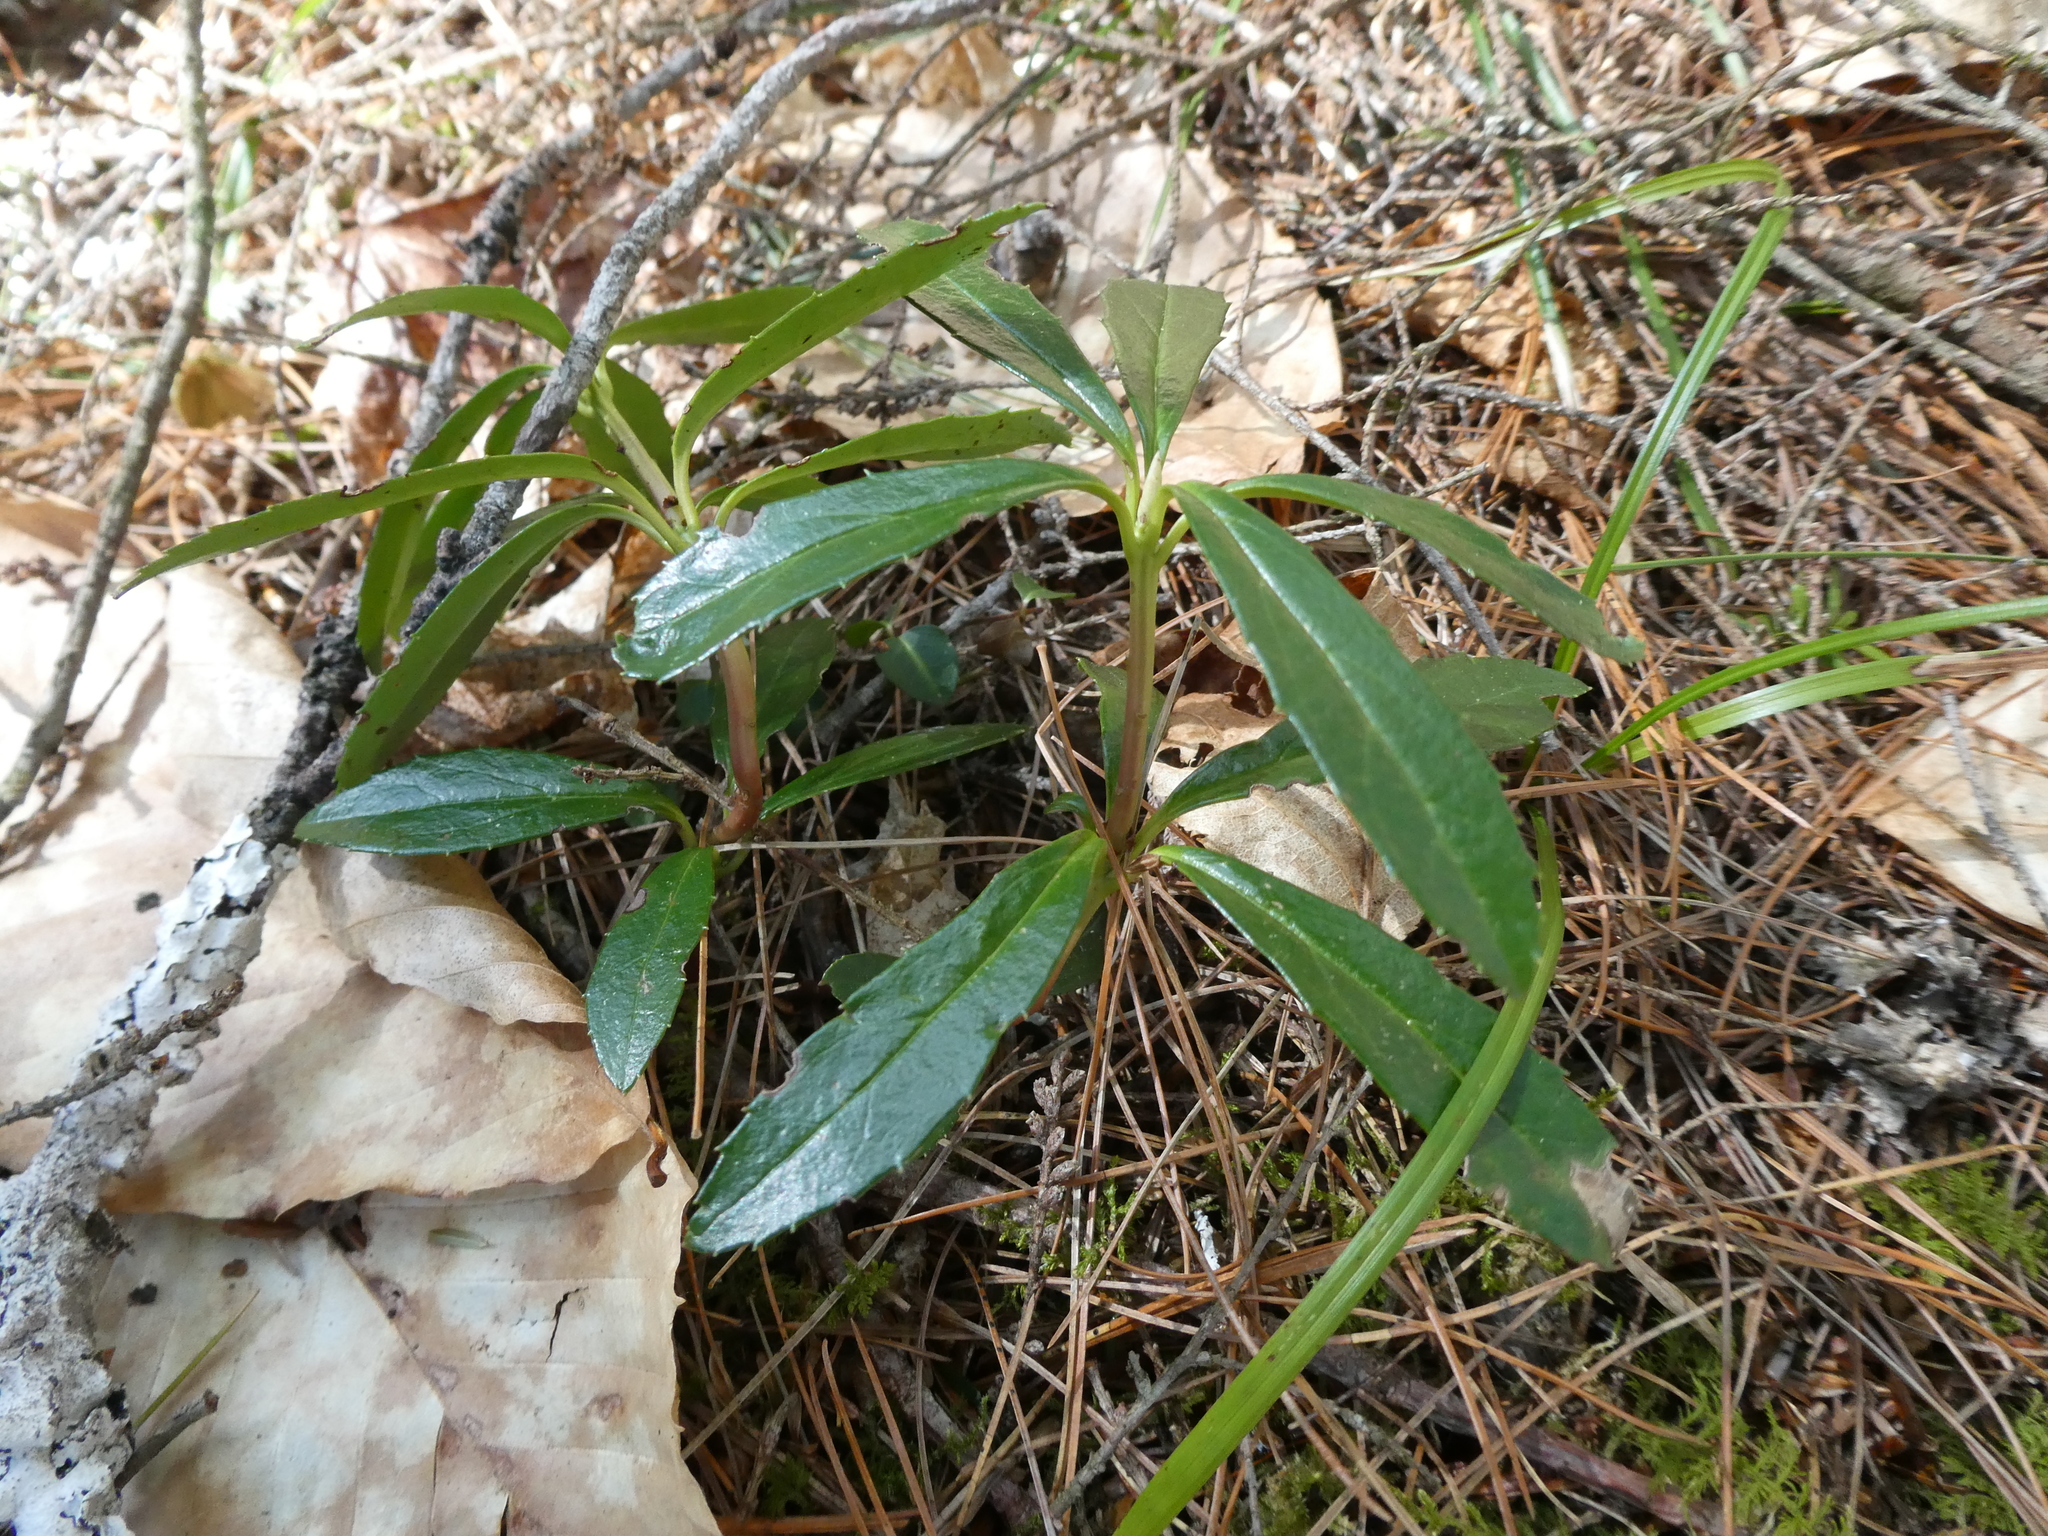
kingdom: Plantae
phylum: Tracheophyta
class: Magnoliopsida
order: Ericales
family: Ericaceae
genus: Chimaphila
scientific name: Chimaphila umbellata
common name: Pipsissewa
